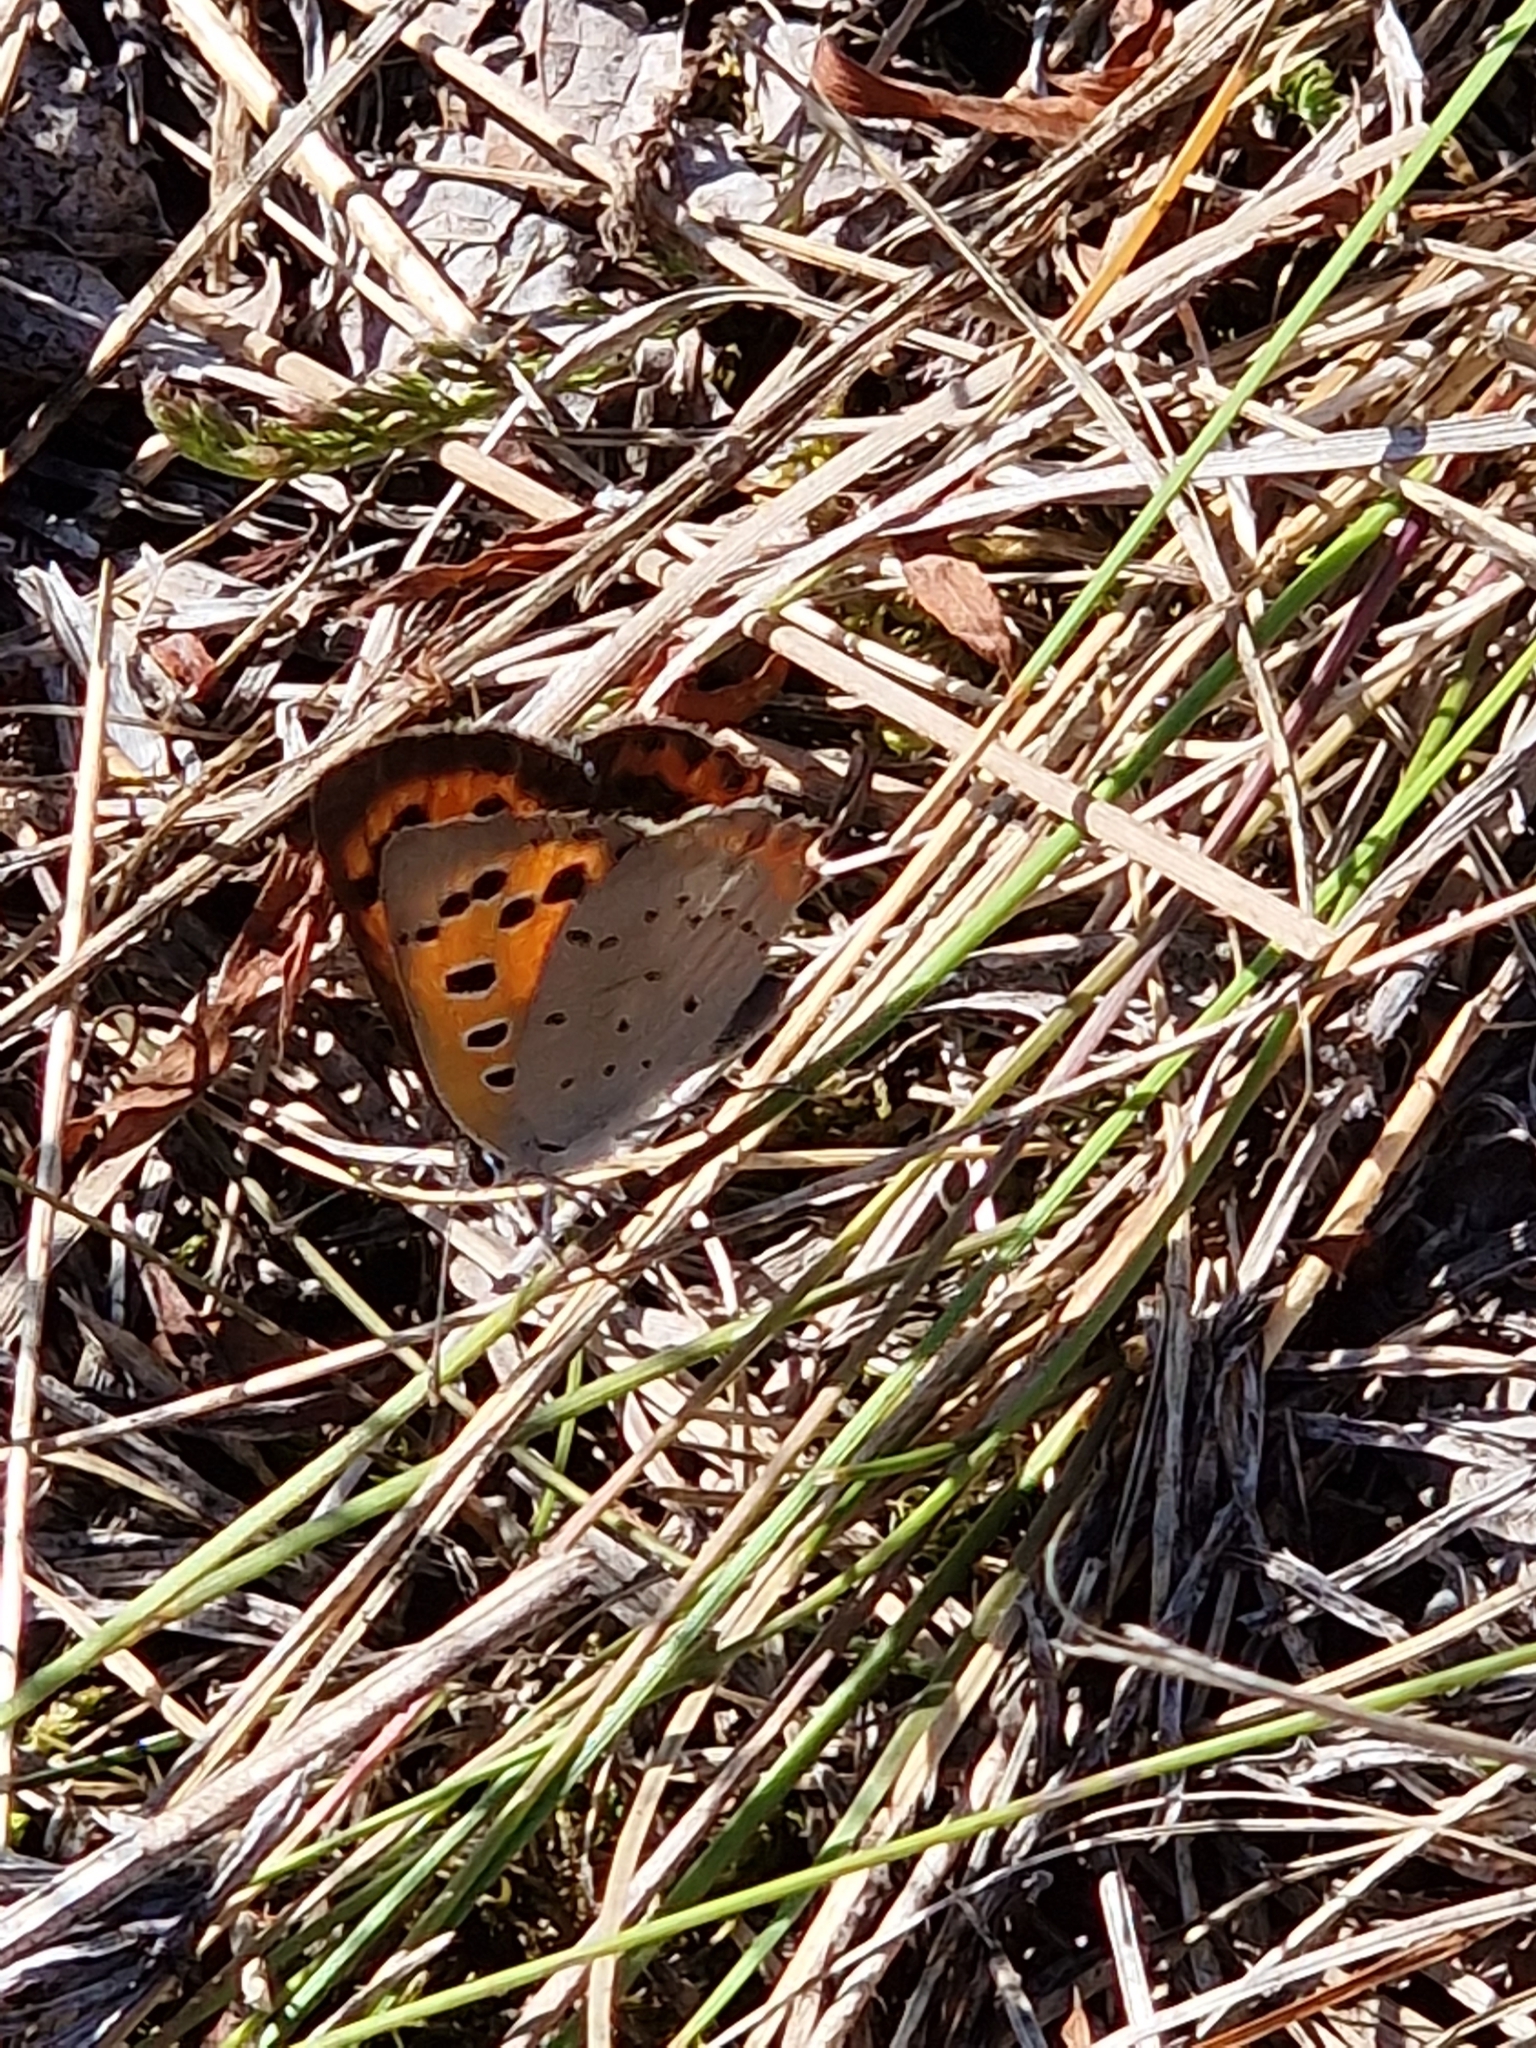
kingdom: Animalia
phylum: Arthropoda
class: Insecta
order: Lepidoptera
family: Lycaenidae
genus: Lycaena
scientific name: Lycaena phlaeas
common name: Small copper
